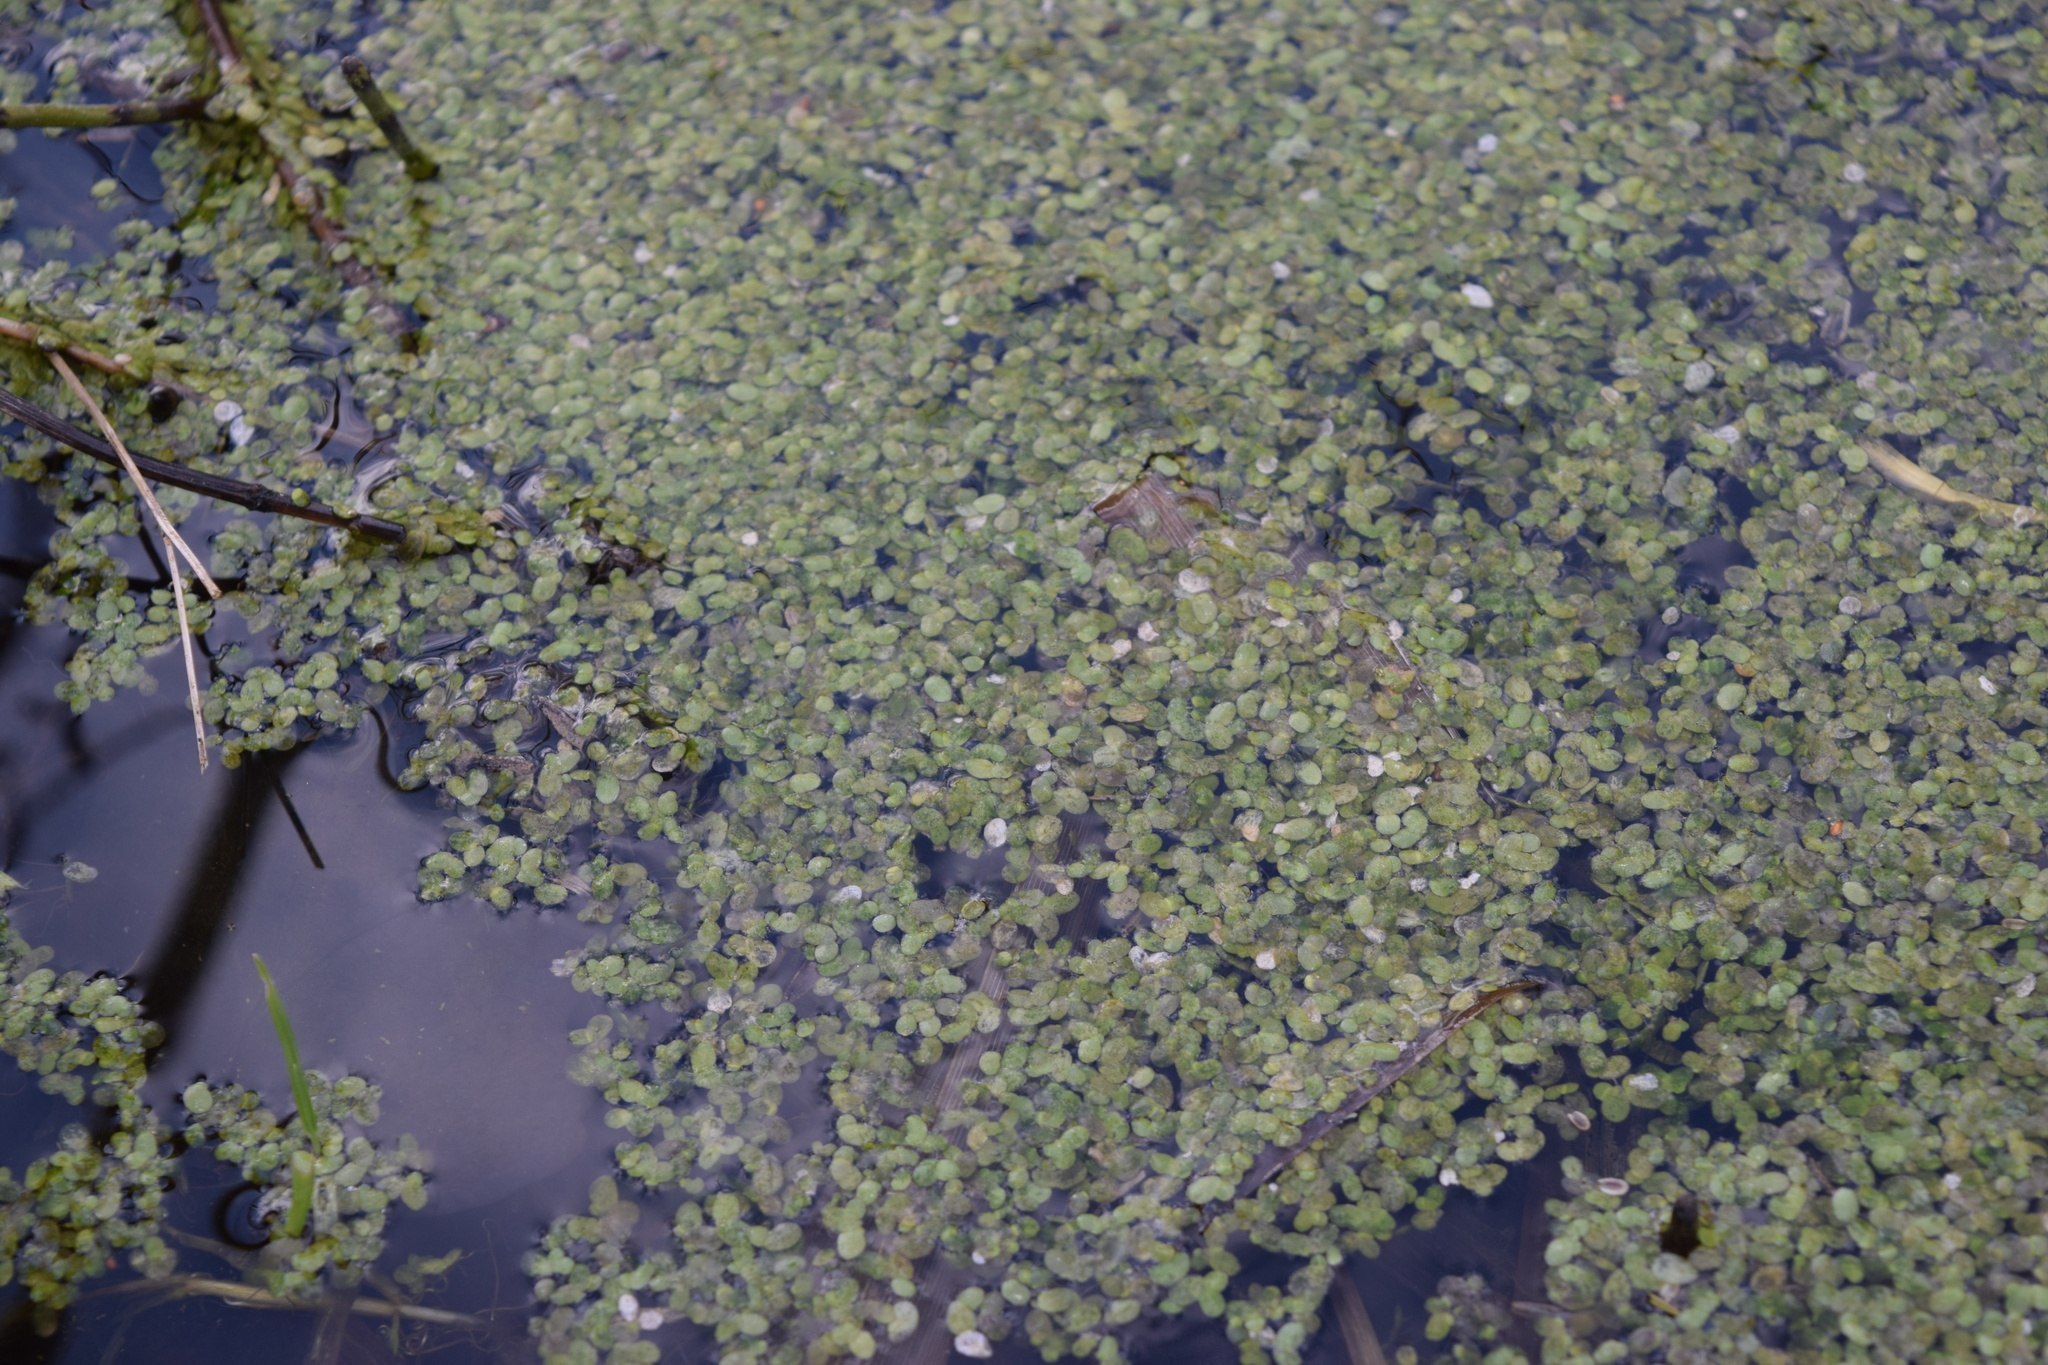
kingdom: Plantae
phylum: Tracheophyta
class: Liliopsida
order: Alismatales
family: Araceae
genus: Lemna
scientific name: Lemna minor
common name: Common duckweed
